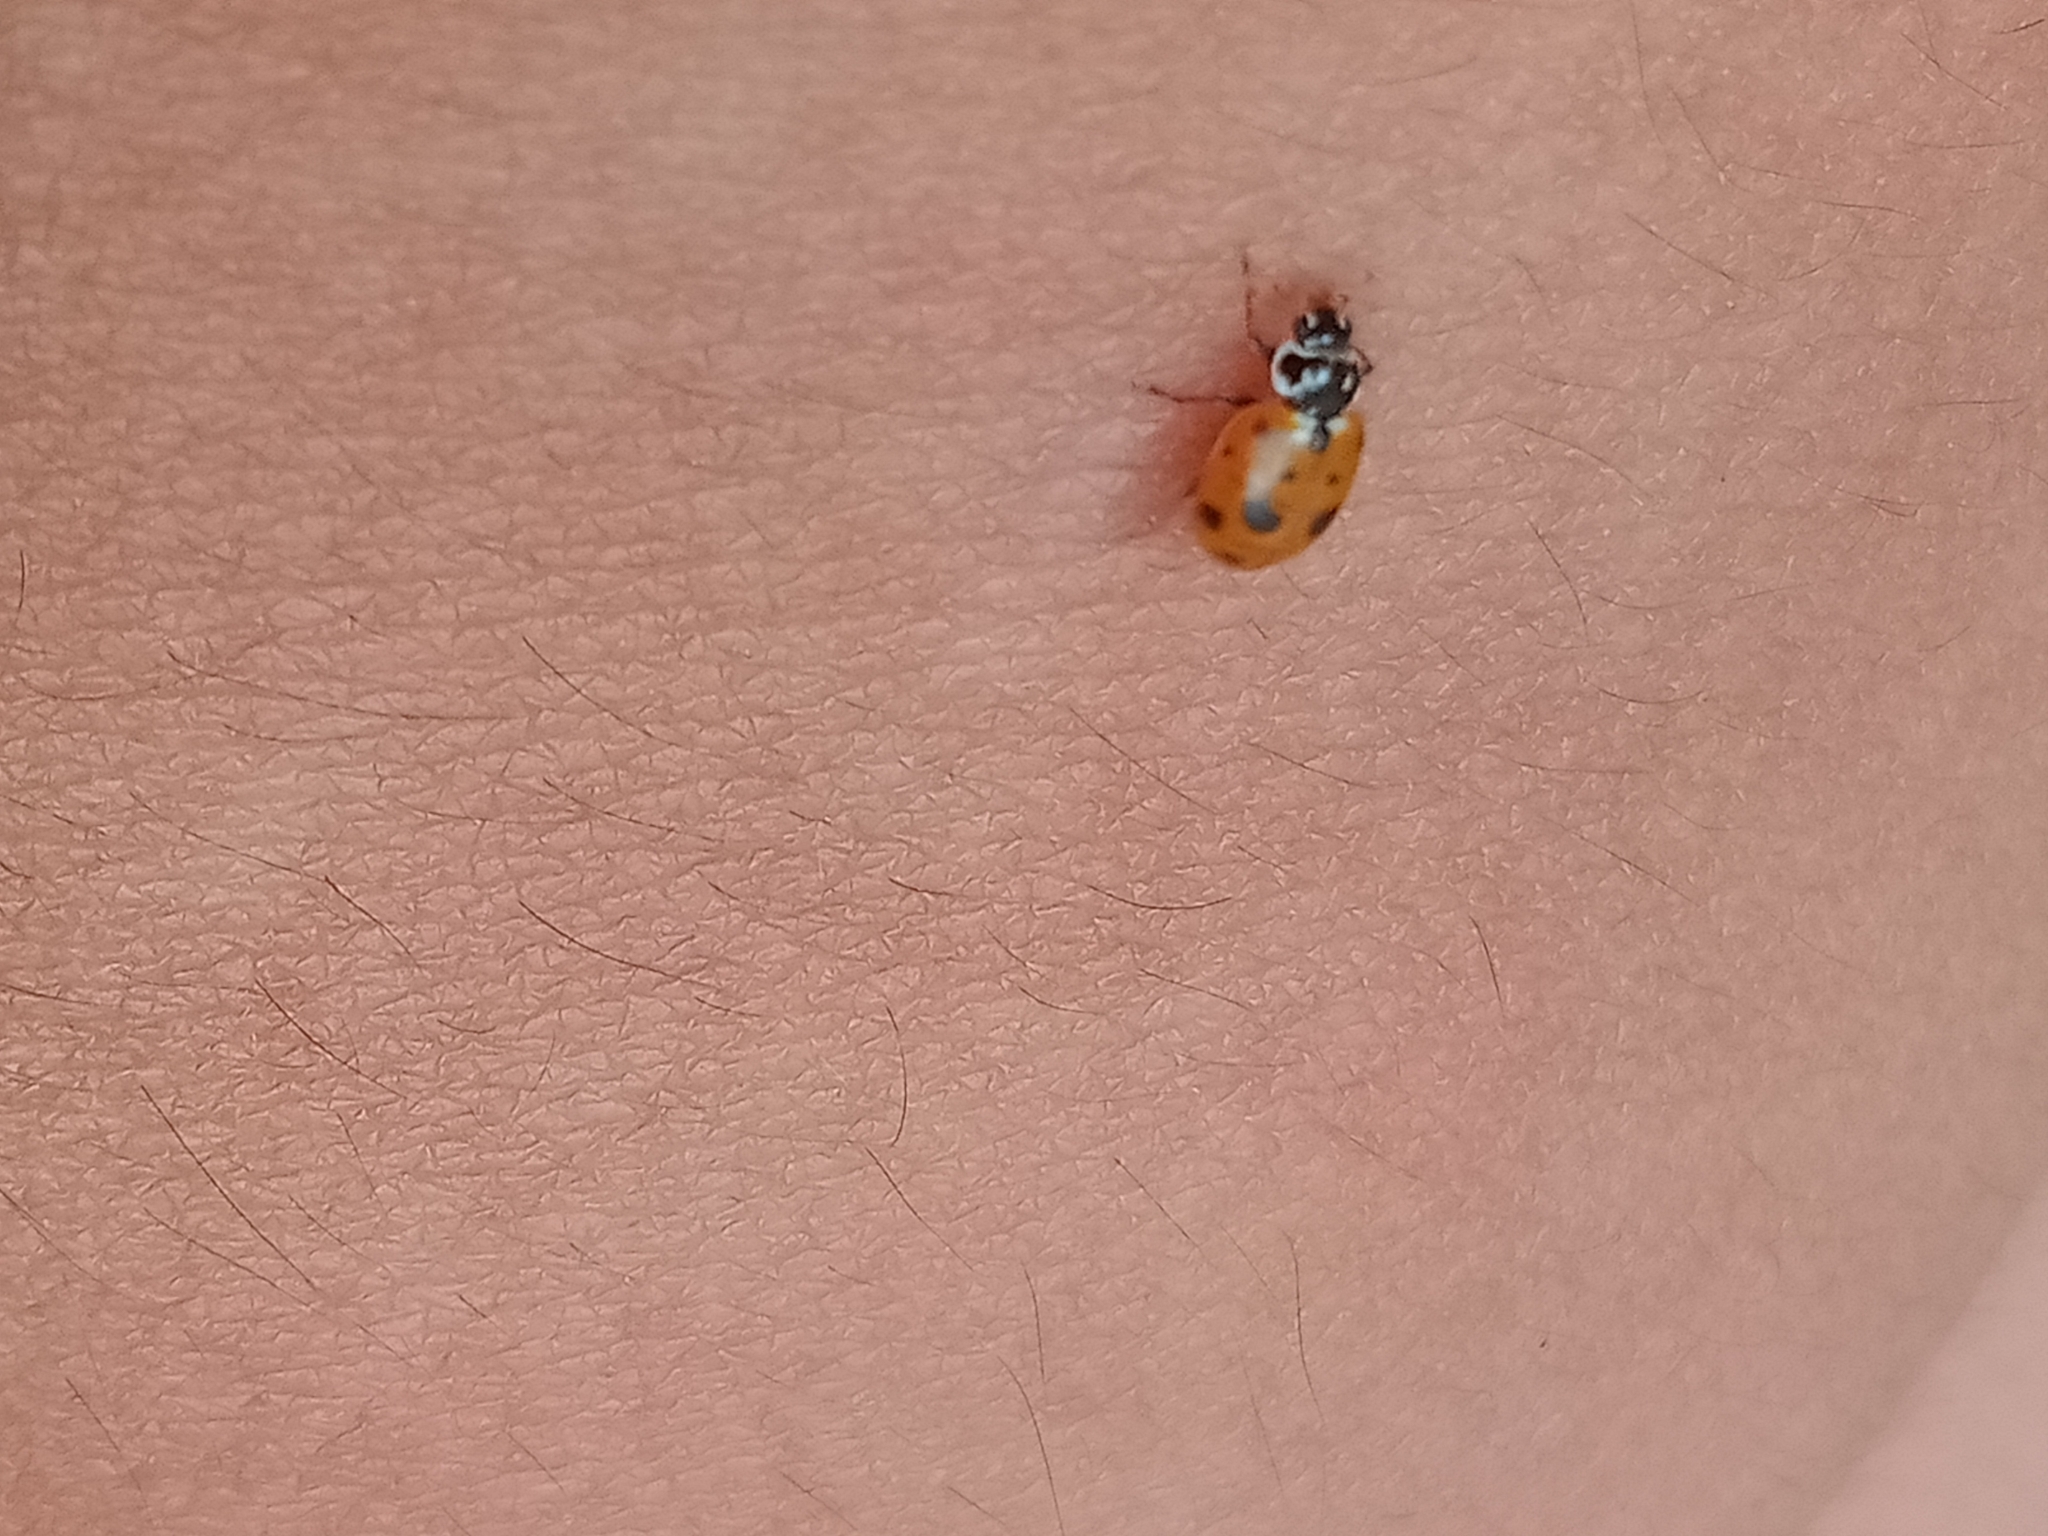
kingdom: Animalia
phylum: Arthropoda
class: Insecta
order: Coleoptera
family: Coccinellidae
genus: Hippodamia
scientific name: Hippodamia variegata
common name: Ladybird beetle
